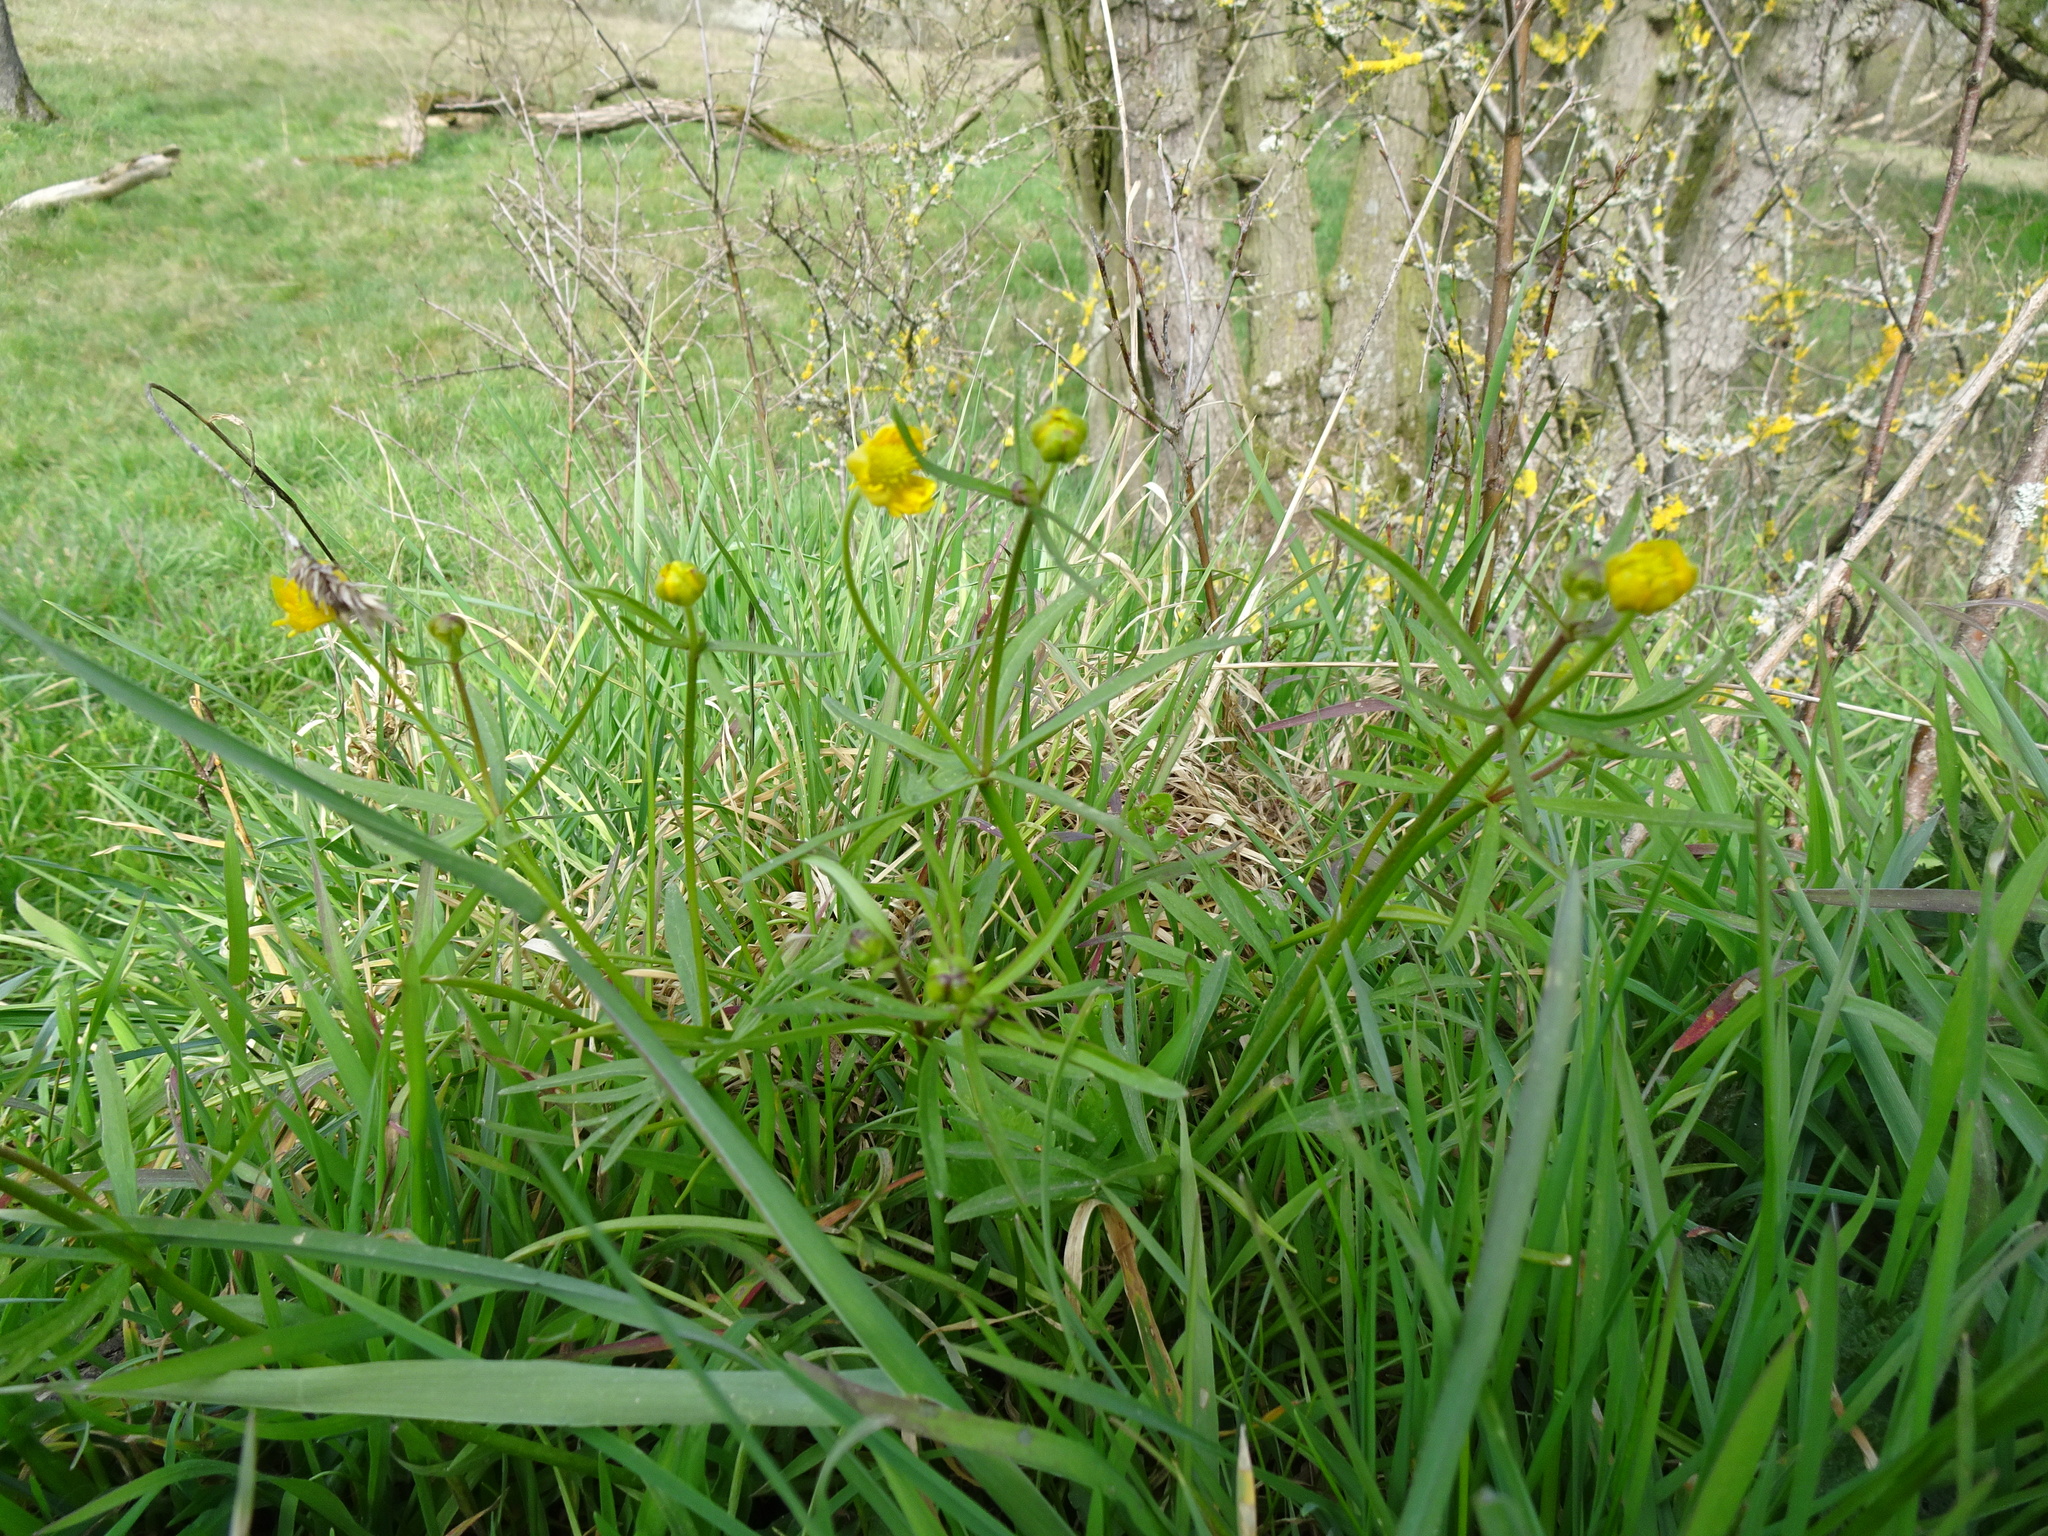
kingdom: Plantae
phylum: Tracheophyta
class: Magnoliopsida
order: Ranunculales
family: Ranunculaceae
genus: Ranunculus
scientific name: Ranunculus auricomus
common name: Goldilocks buttercup
